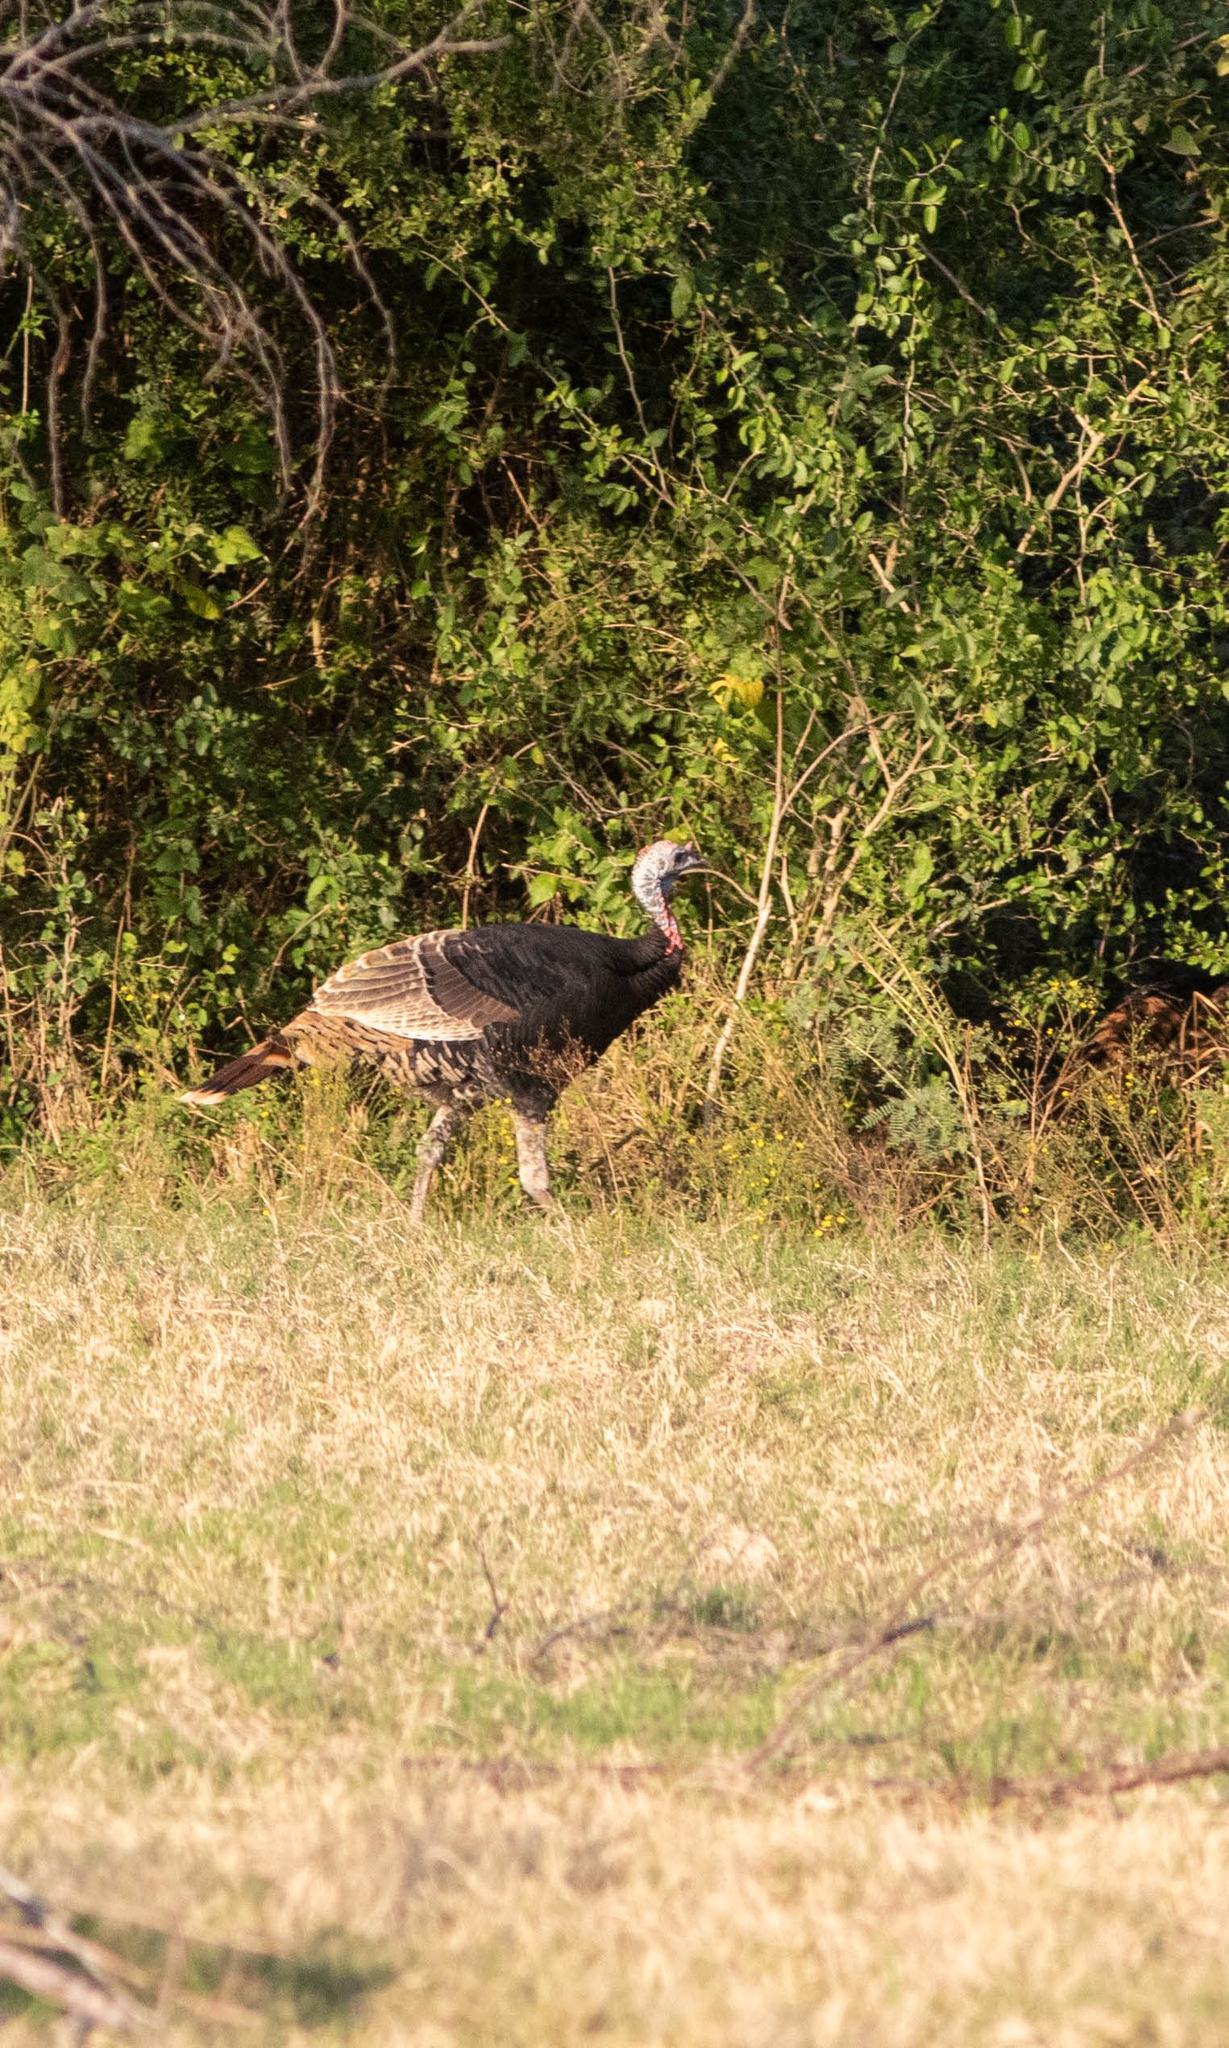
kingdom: Animalia
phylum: Chordata
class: Aves
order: Galliformes
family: Phasianidae
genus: Meleagris
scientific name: Meleagris gallopavo
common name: Wild turkey
